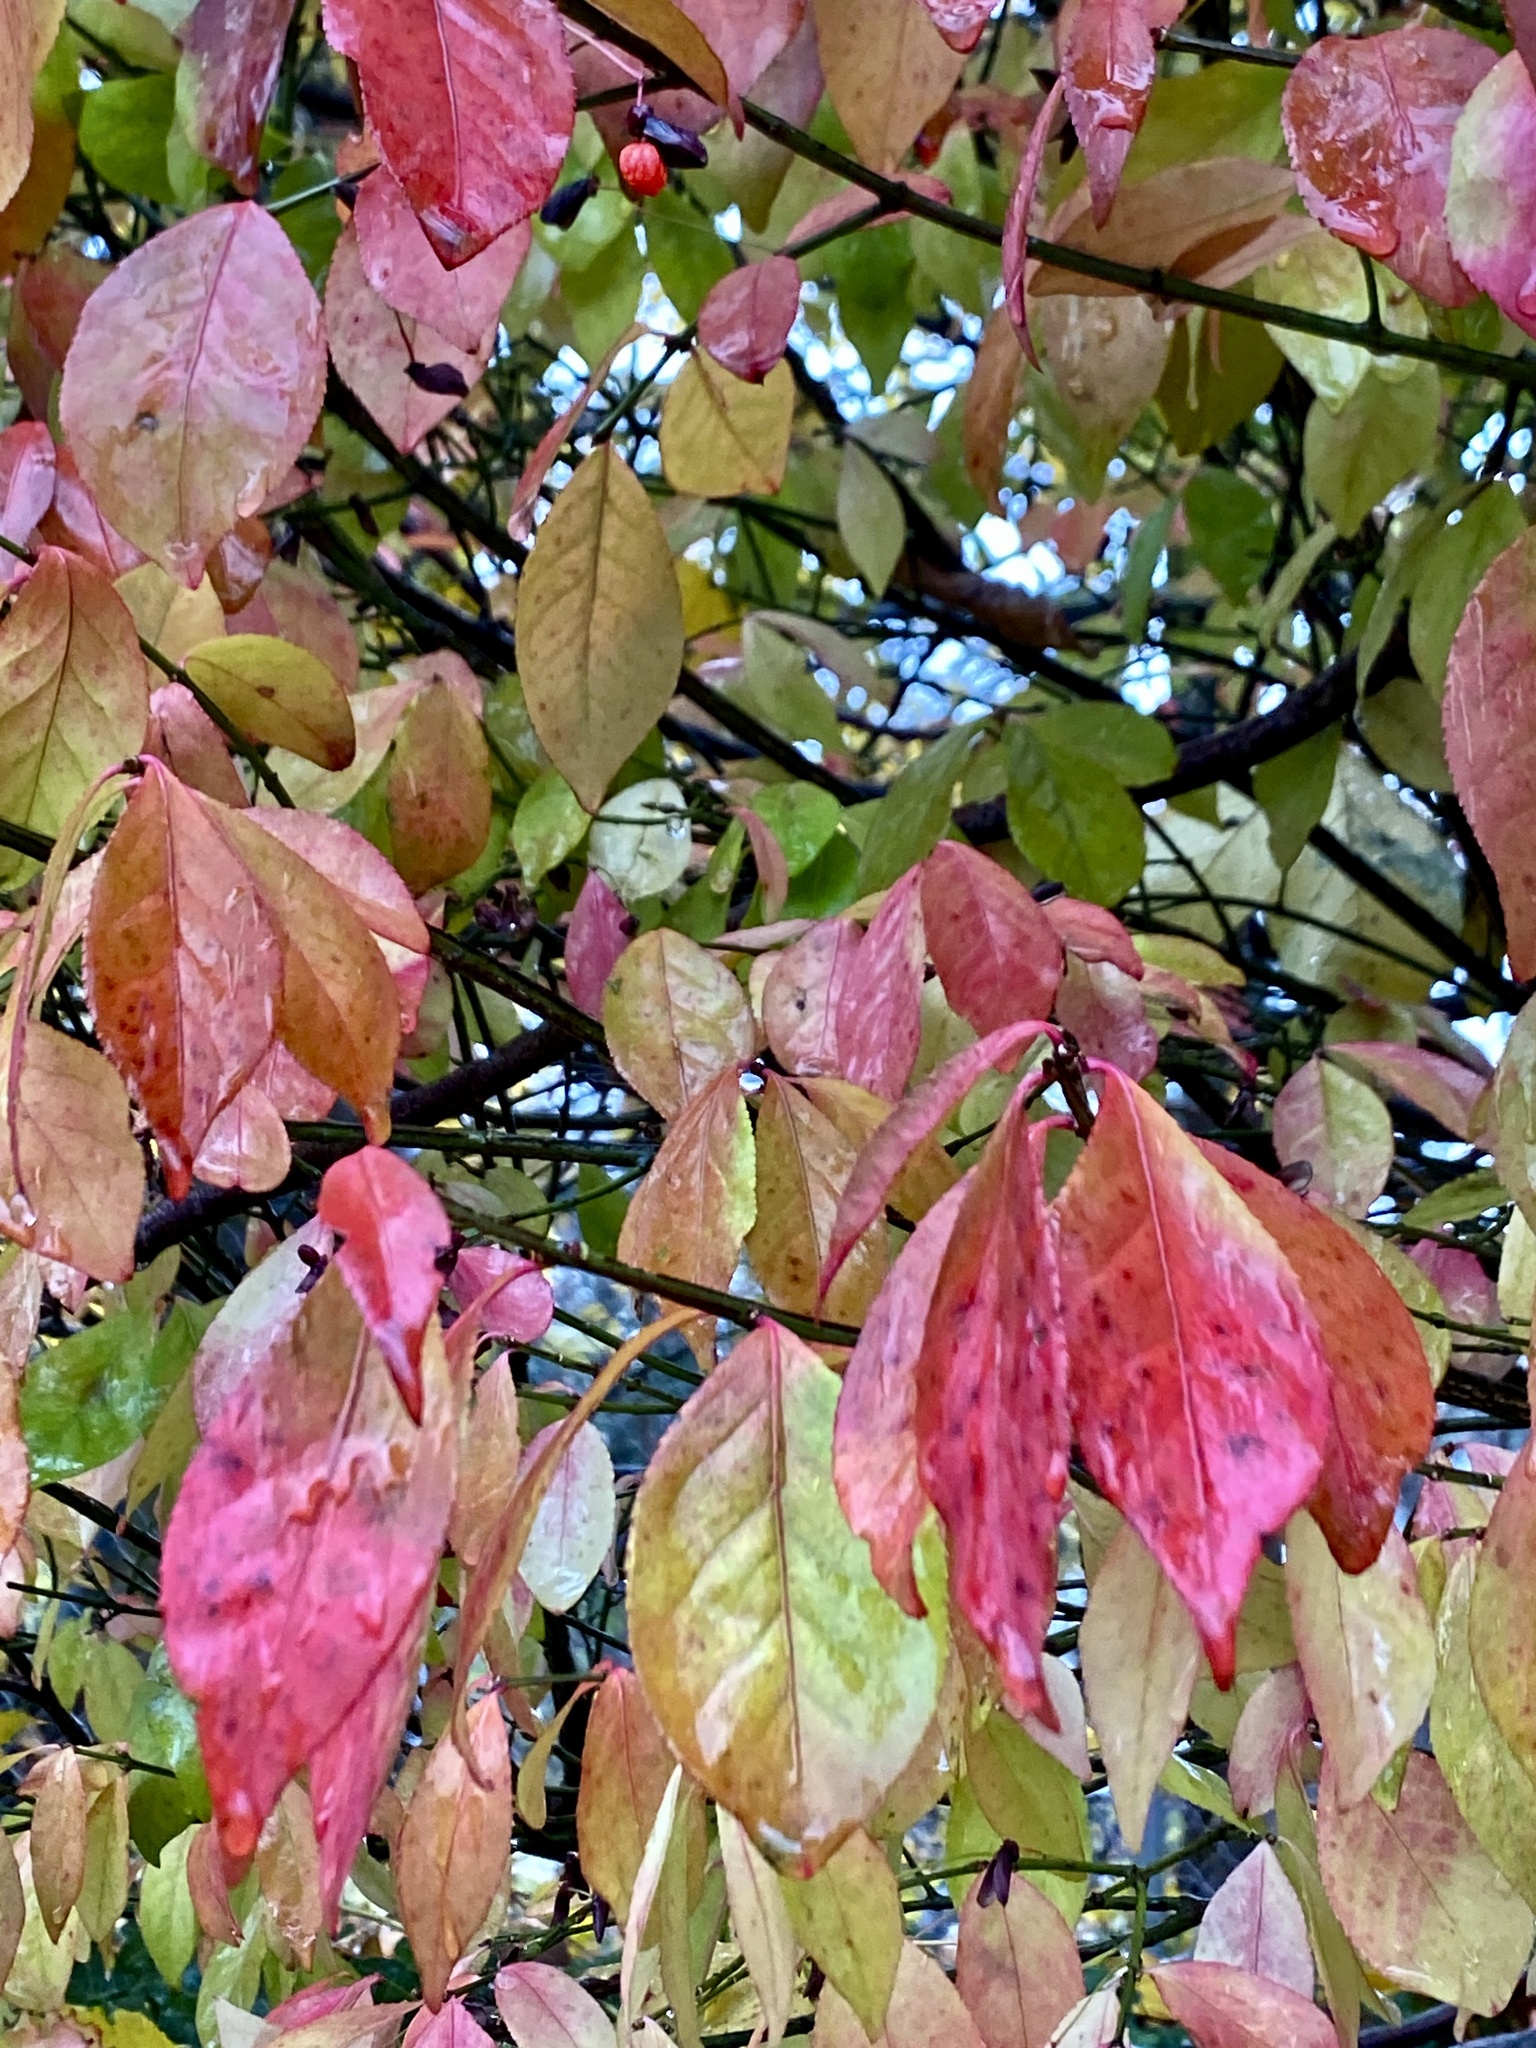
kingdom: Plantae
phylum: Tracheophyta
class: Magnoliopsida
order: Celastrales
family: Celastraceae
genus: Euonymus
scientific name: Euonymus alatus
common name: Winged euonymus
